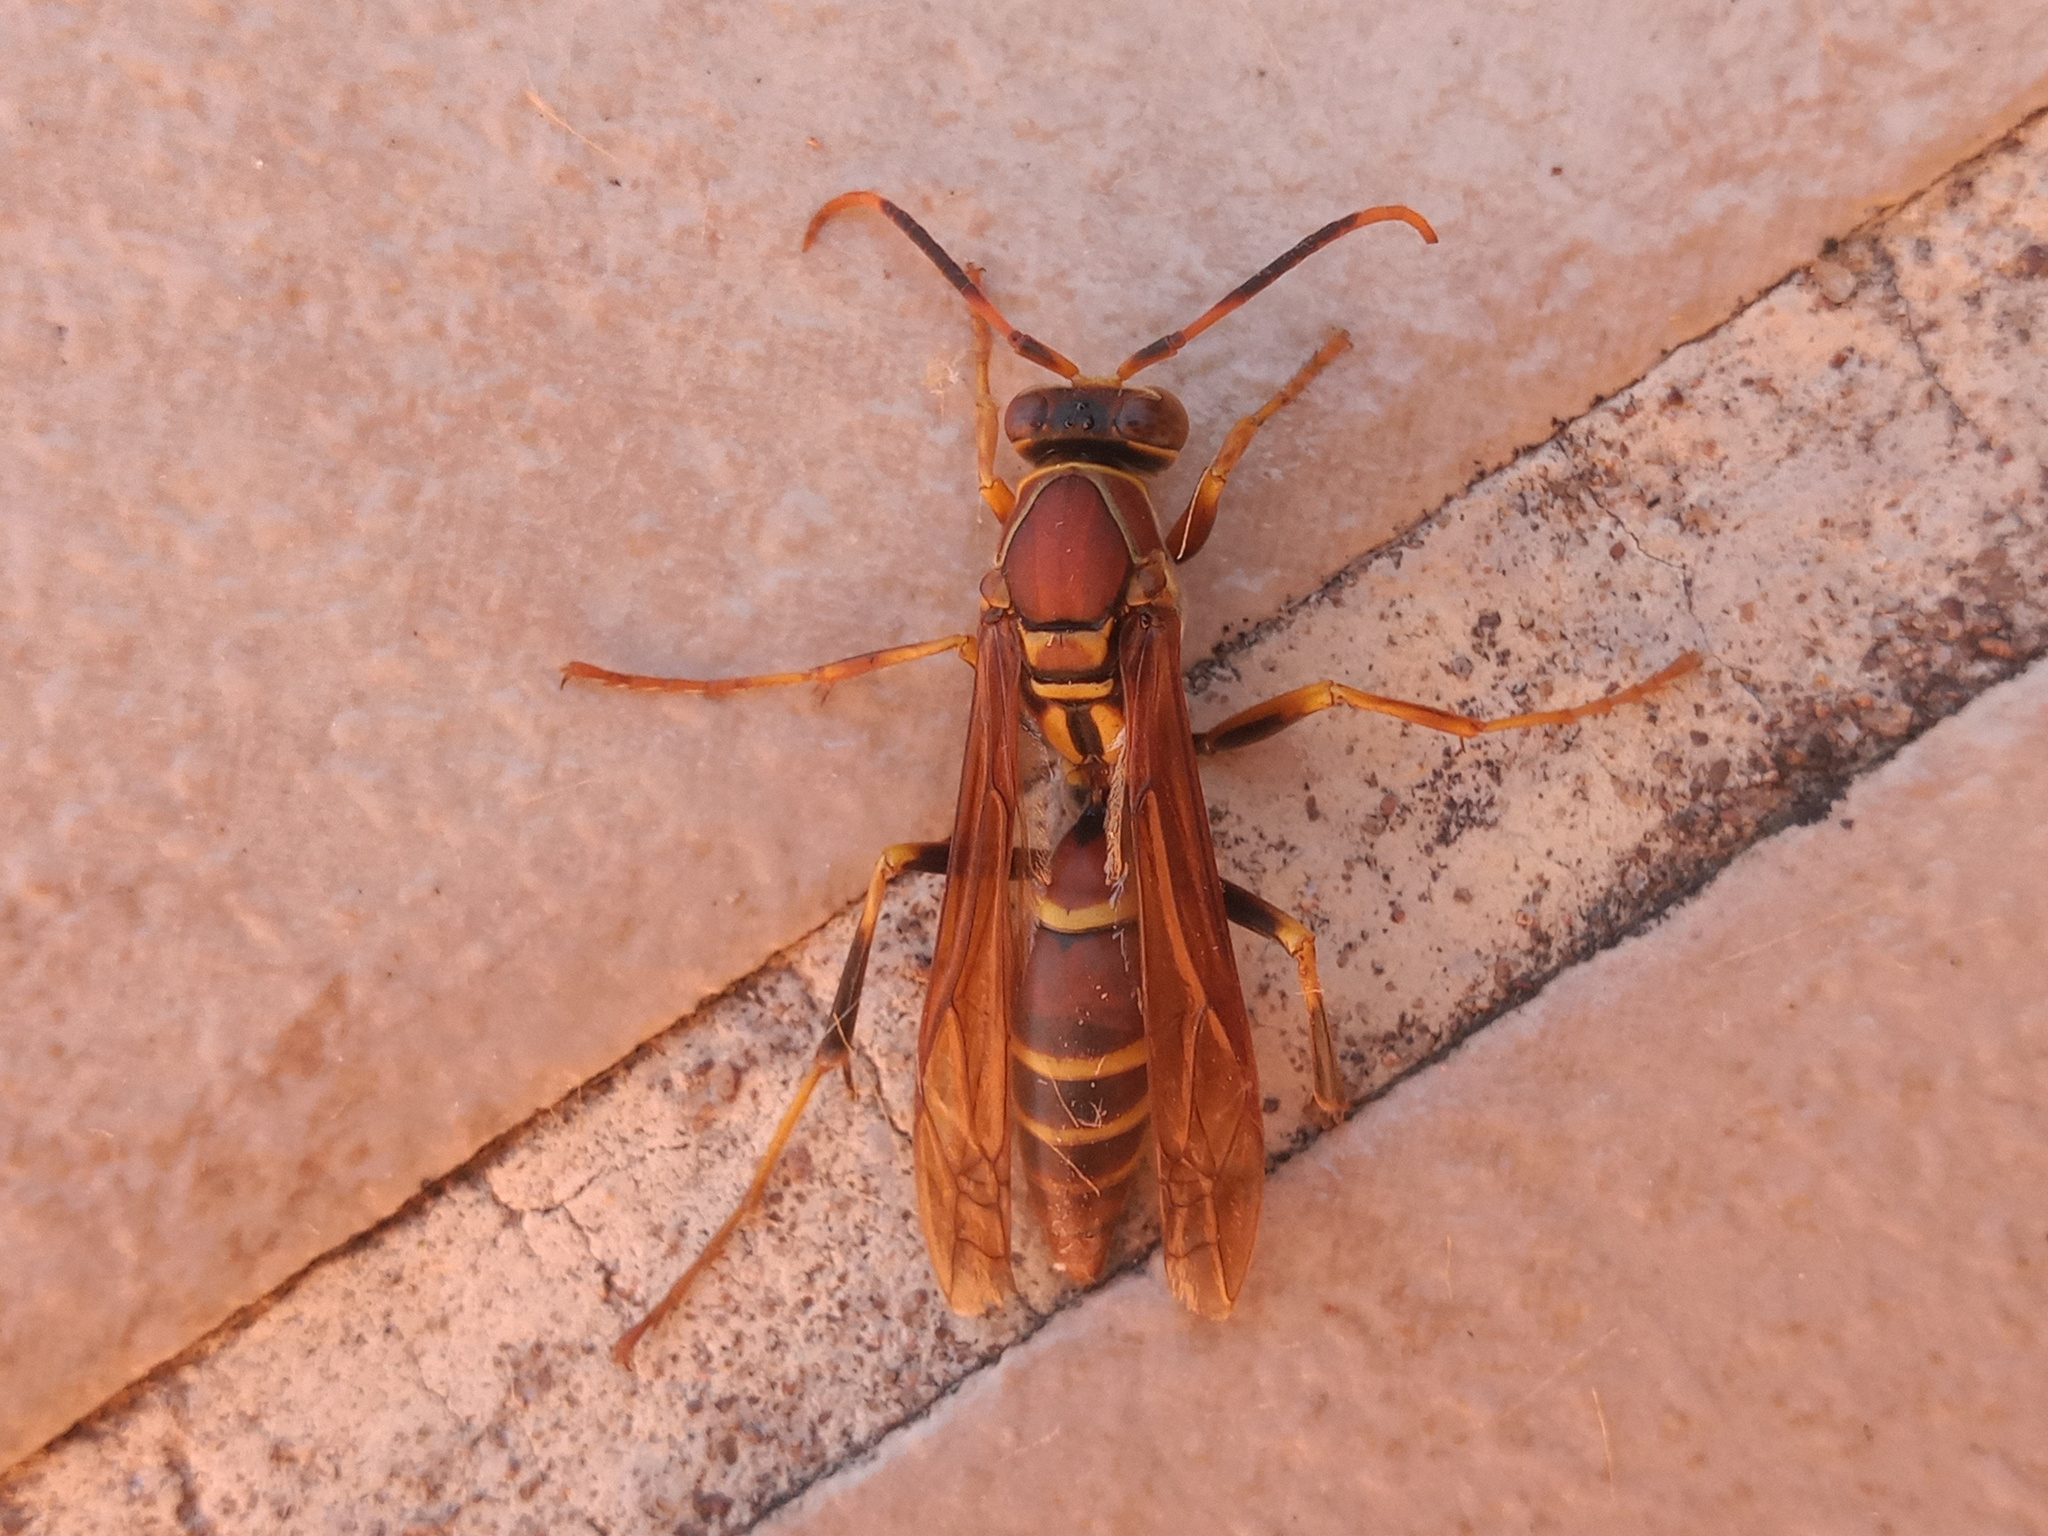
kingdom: Animalia
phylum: Arthropoda
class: Insecta
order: Hymenoptera
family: Eumenidae
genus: Polistes
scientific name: Polistes instabilis
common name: Unstable paper wasp
